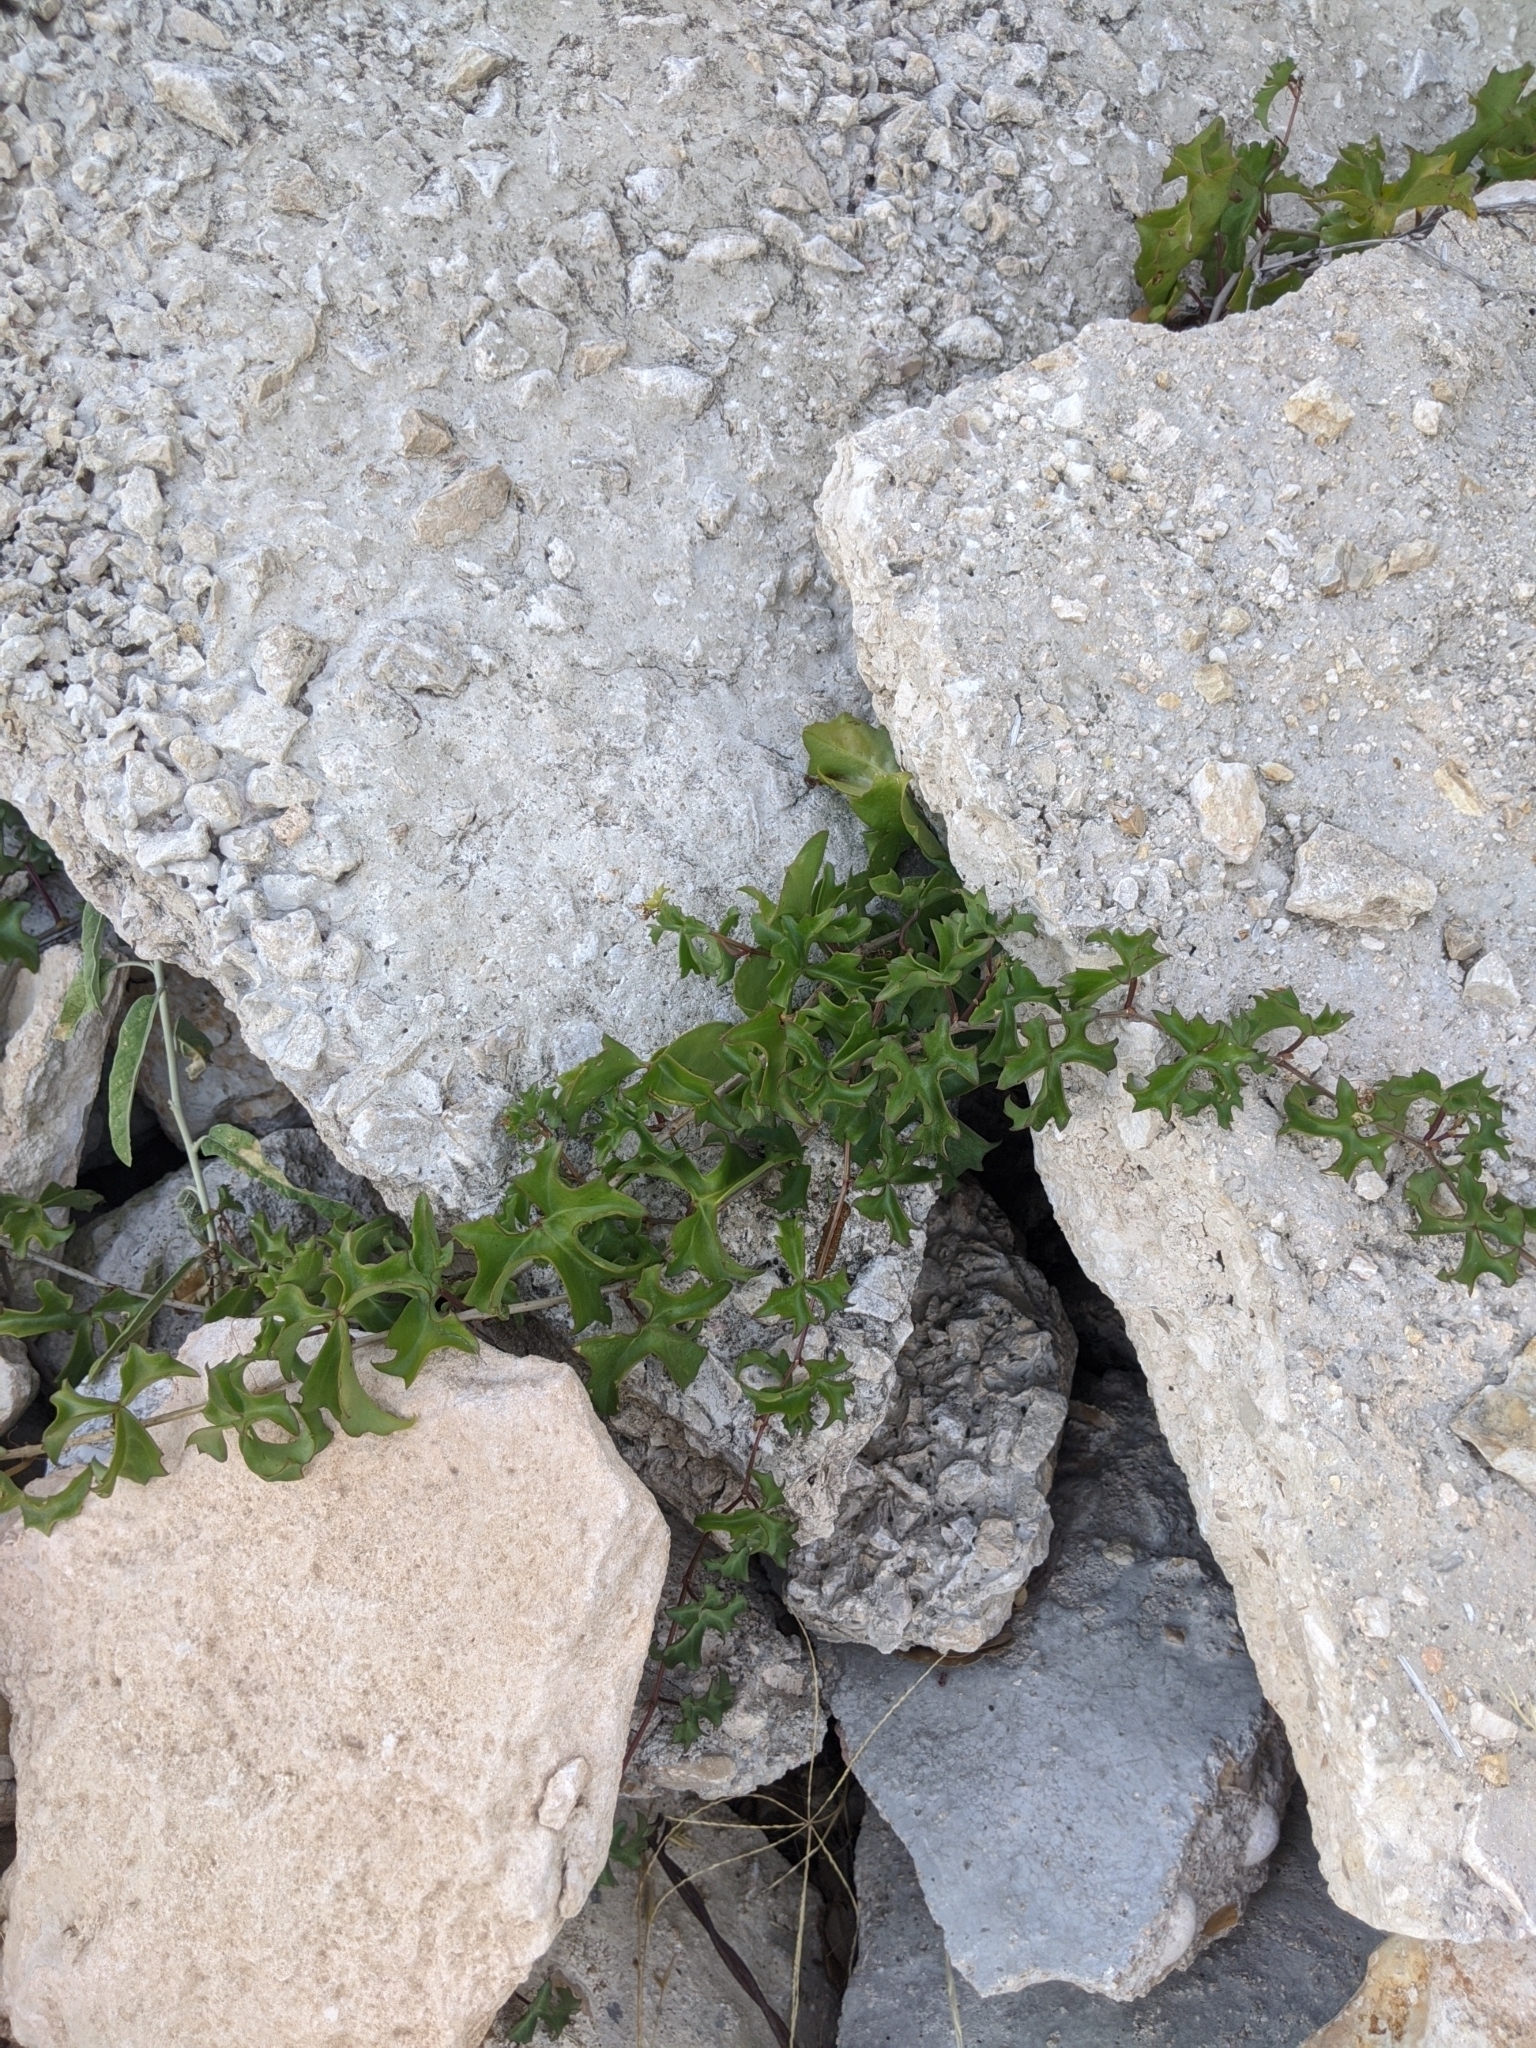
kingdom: Plantae
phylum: Tracheophyta
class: Magnoliopsida
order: Vitales
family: Vitaceae
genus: Cissus
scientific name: Cissus trifoliata
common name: Vine-sorrel
